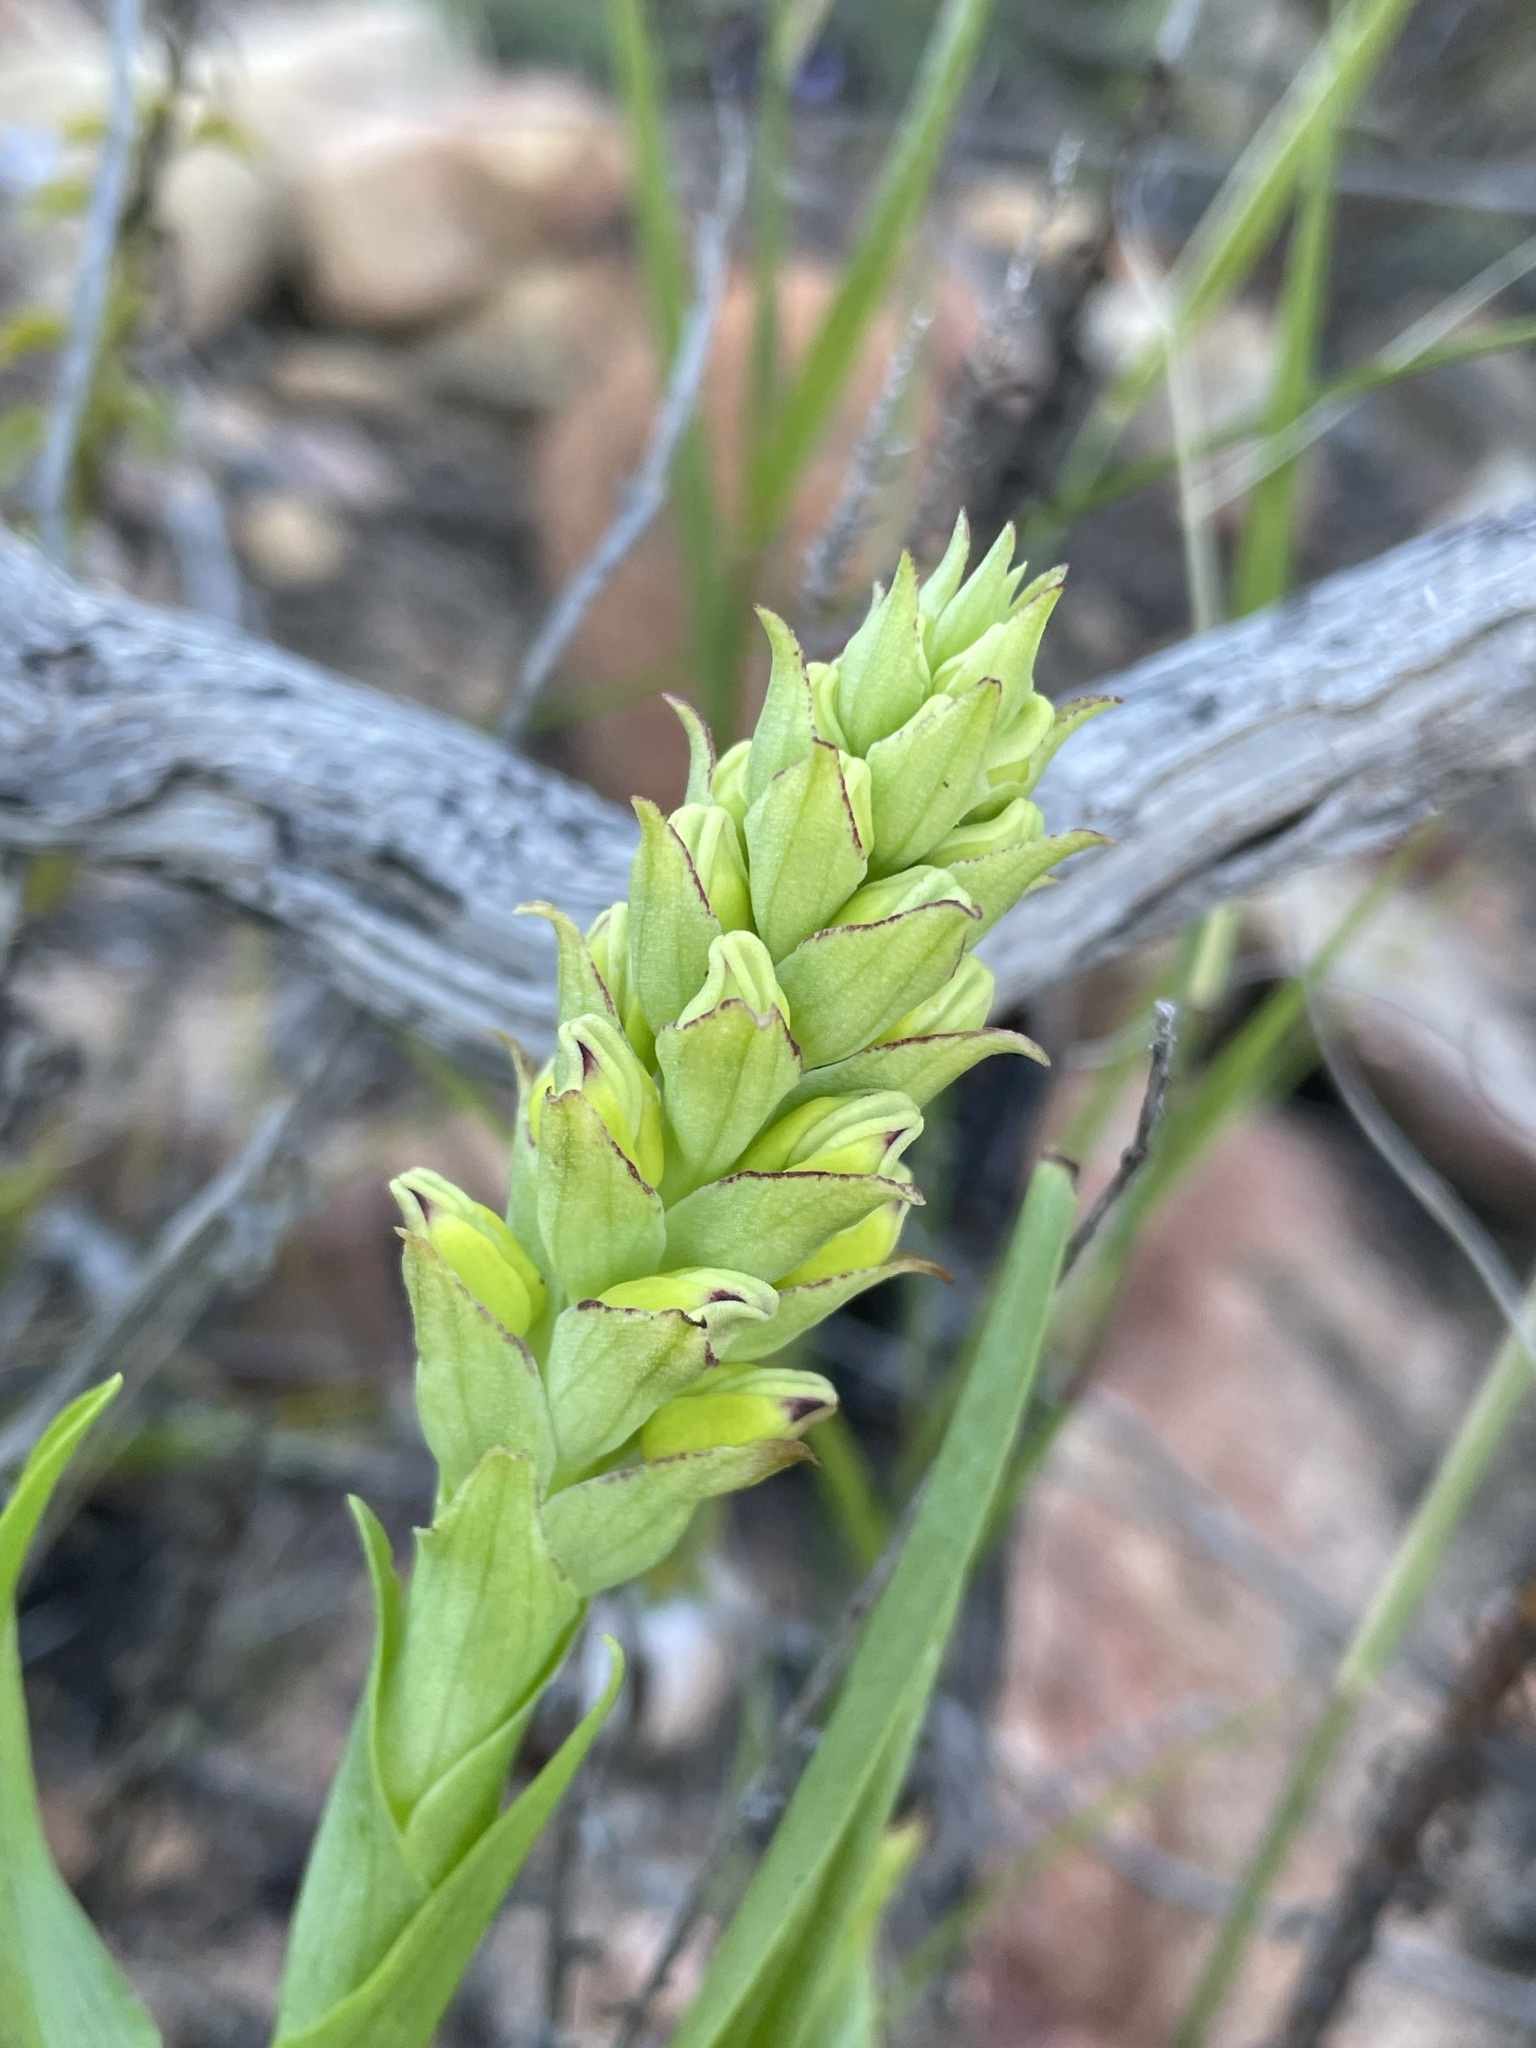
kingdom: Plantae
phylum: Tracheophyta
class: Liliopsida
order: Asparagales
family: Orchidaceae
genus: Corycium
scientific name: Corycium orobanchoides
